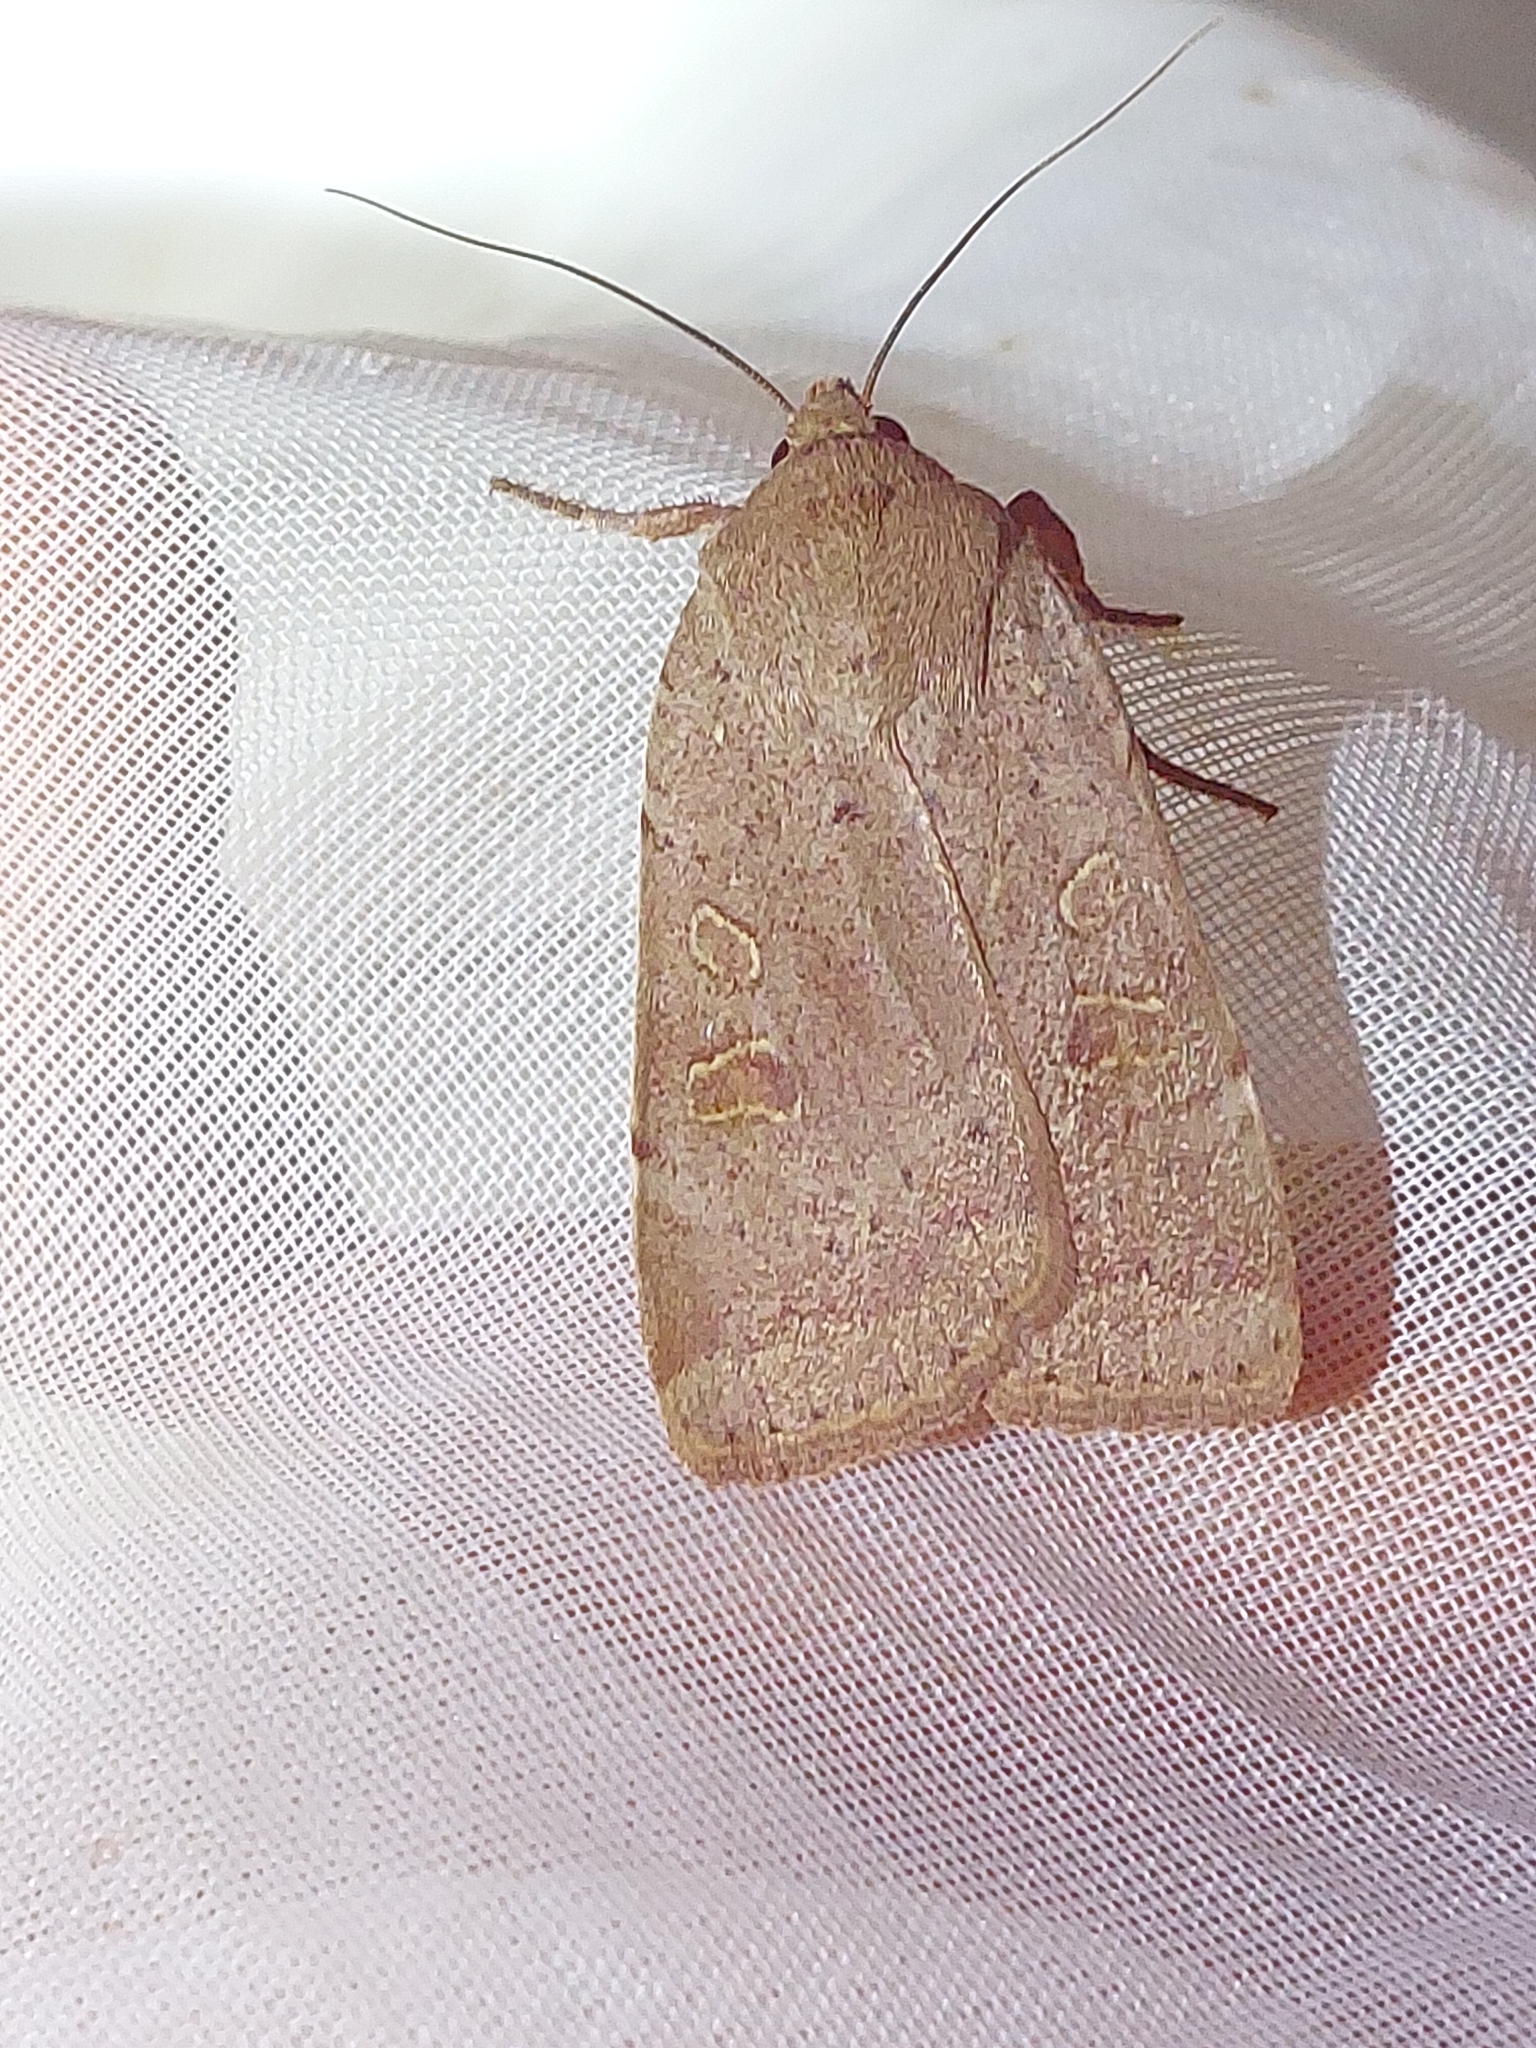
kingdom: Animalia
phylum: Arthropoda
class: Insecta
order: Lepidoptera
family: Noctuidae
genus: Noctua
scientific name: Noctua comes
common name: Lesser yellow underwing
